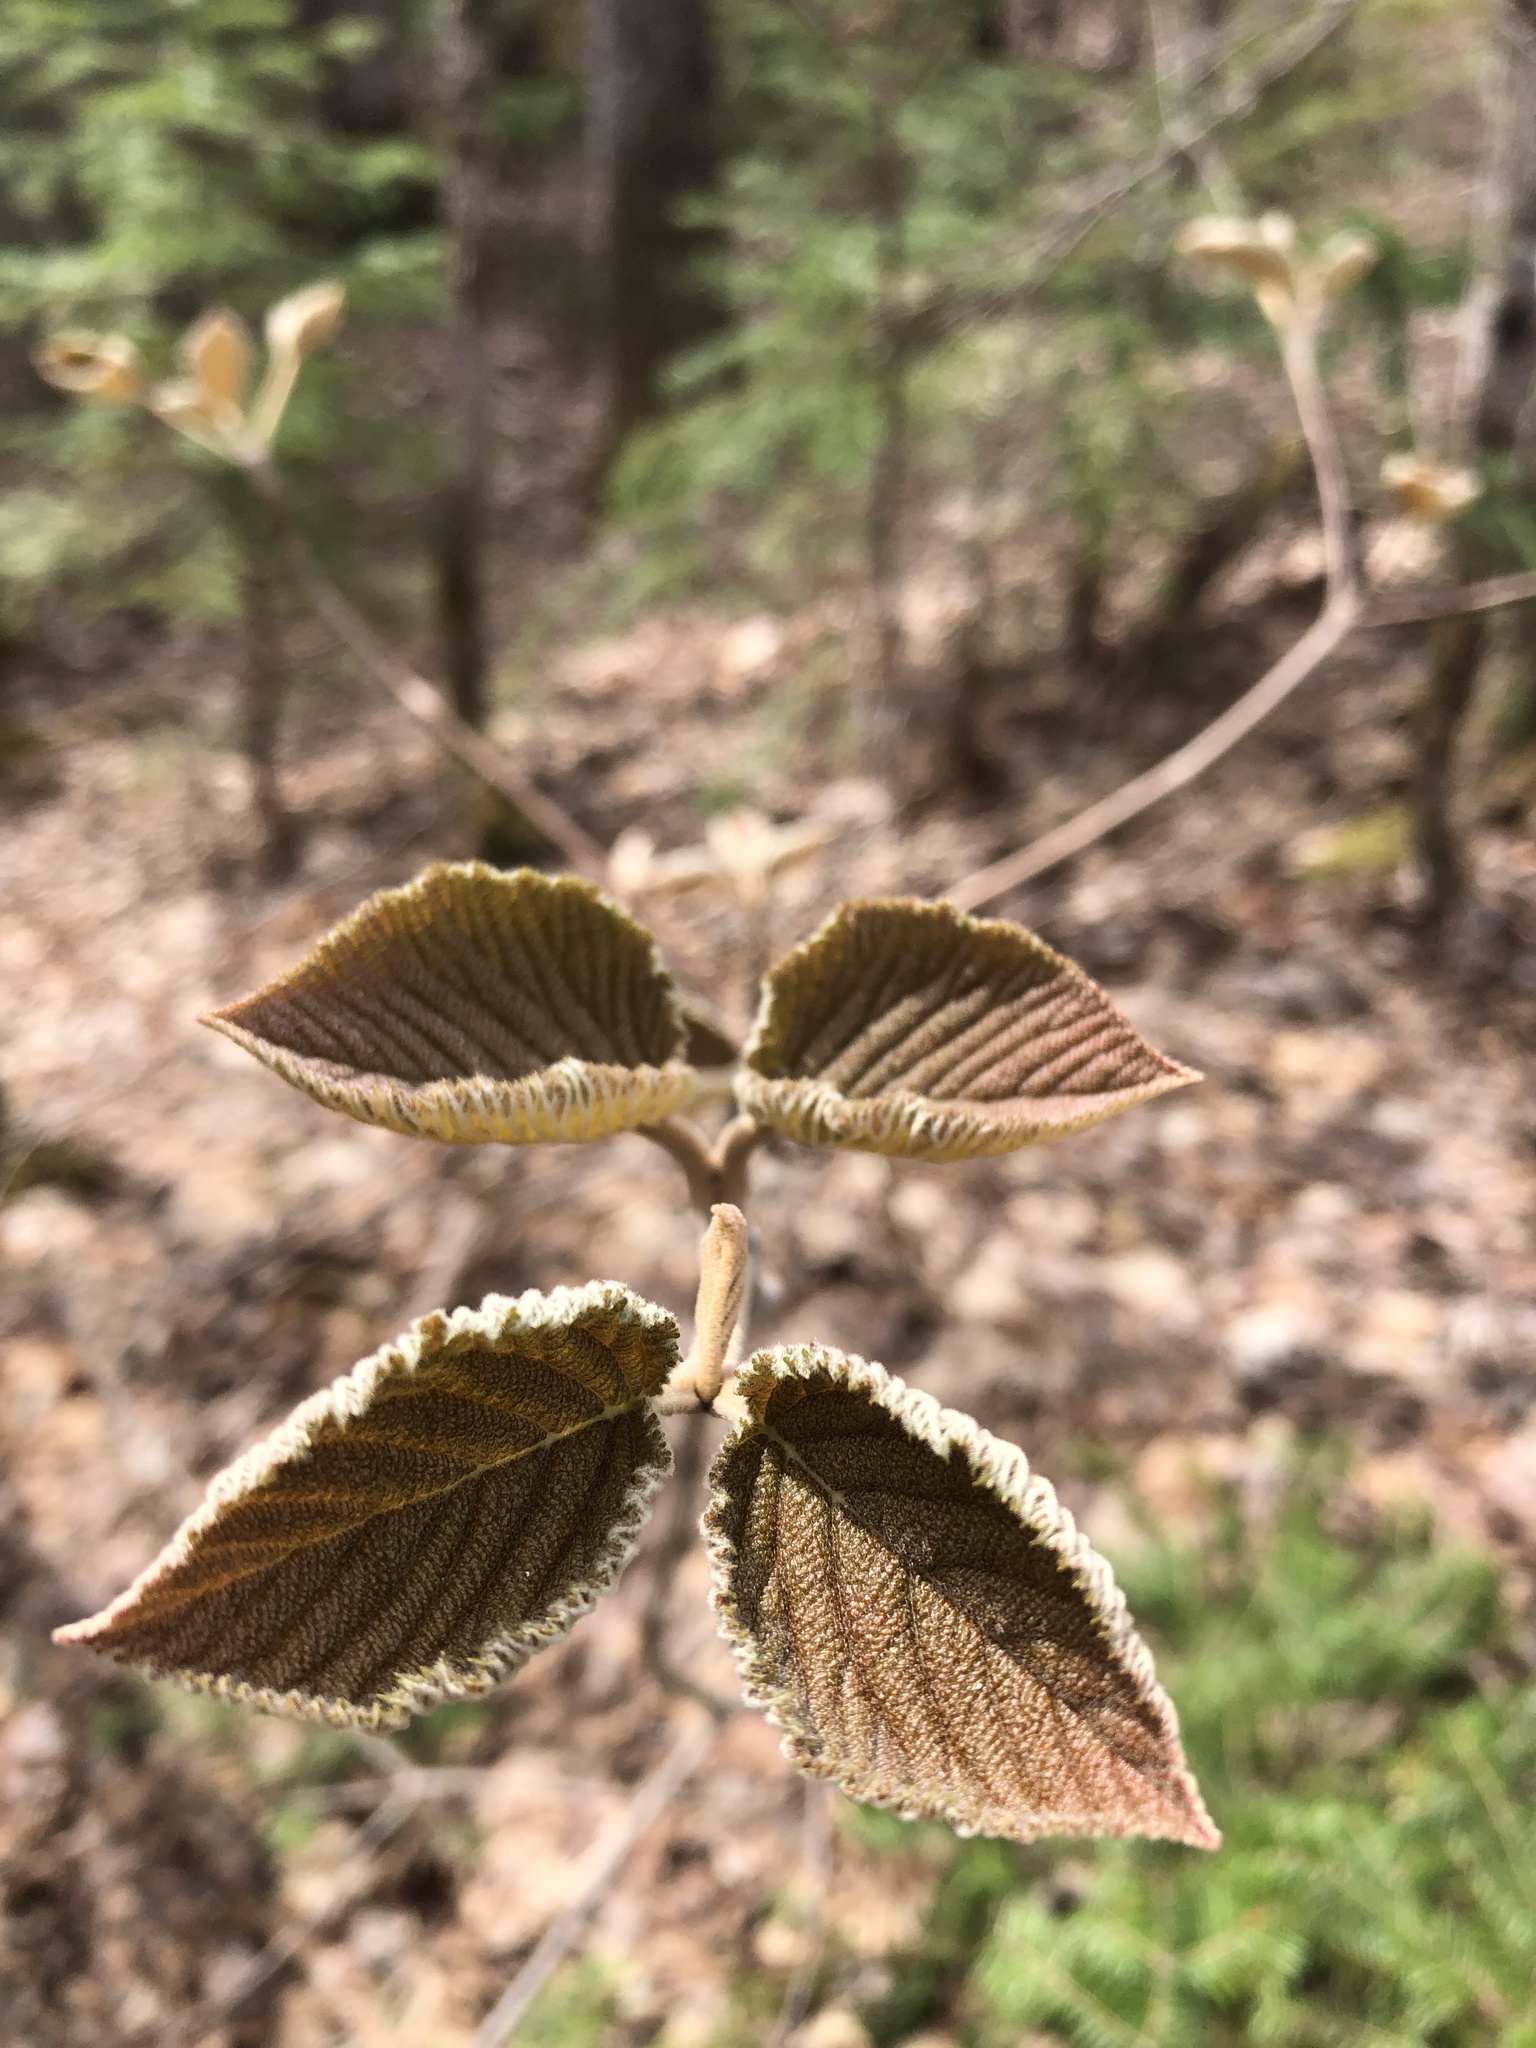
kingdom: Plantae
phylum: Tracheophyta
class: Magnoliopsida
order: Dipsacales
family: Viburnaceae
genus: Viburnum
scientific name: Viburnum lantanoides
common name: Hobblebush
